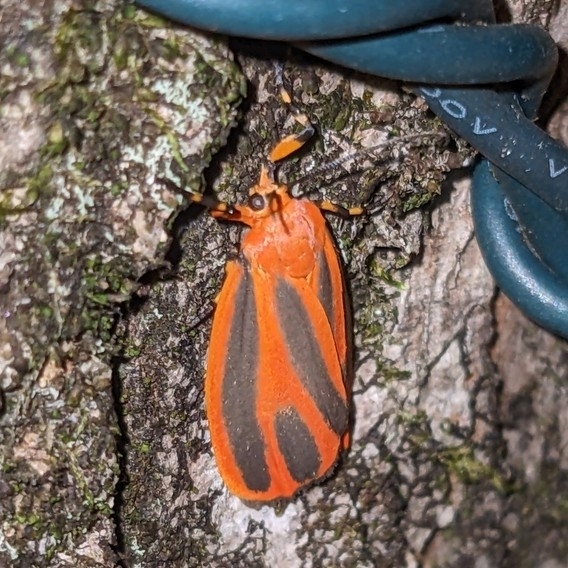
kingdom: Animalia
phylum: Arthropoda
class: Insecta
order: Lepidoptera
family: Erebidae
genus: Hypoprepia
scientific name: Hypoprepia miniata
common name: Scarlet-winged lichen moth
